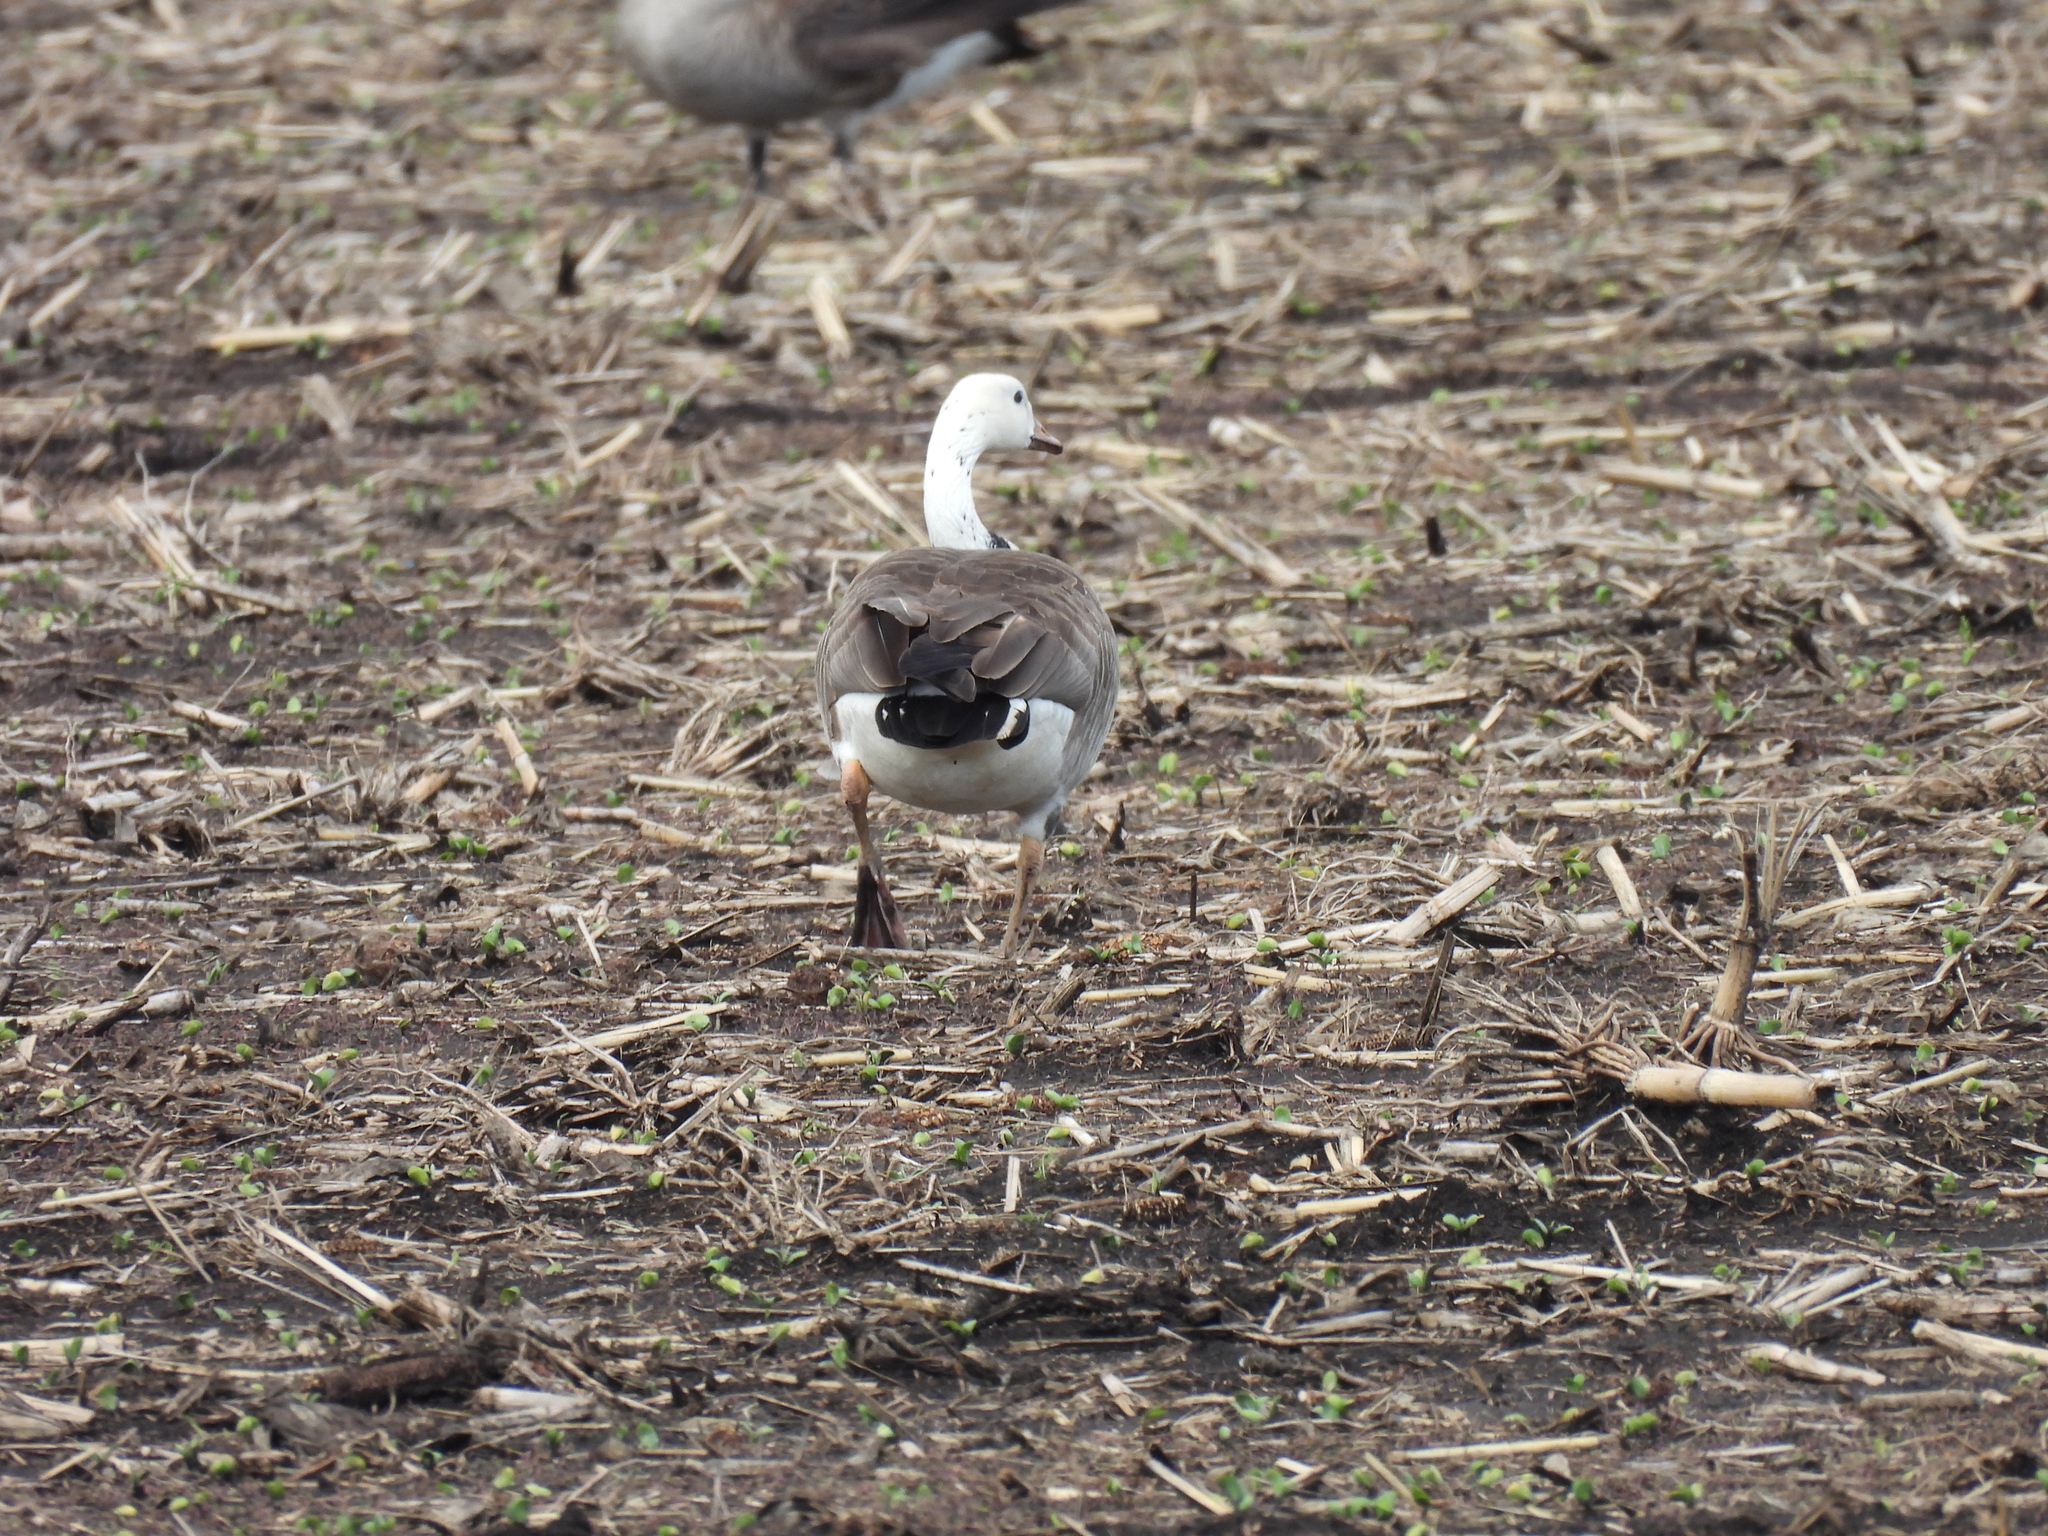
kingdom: Animalia
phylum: Chordata
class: Aves
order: Anseriformes
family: Anatidae
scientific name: Anatidae
